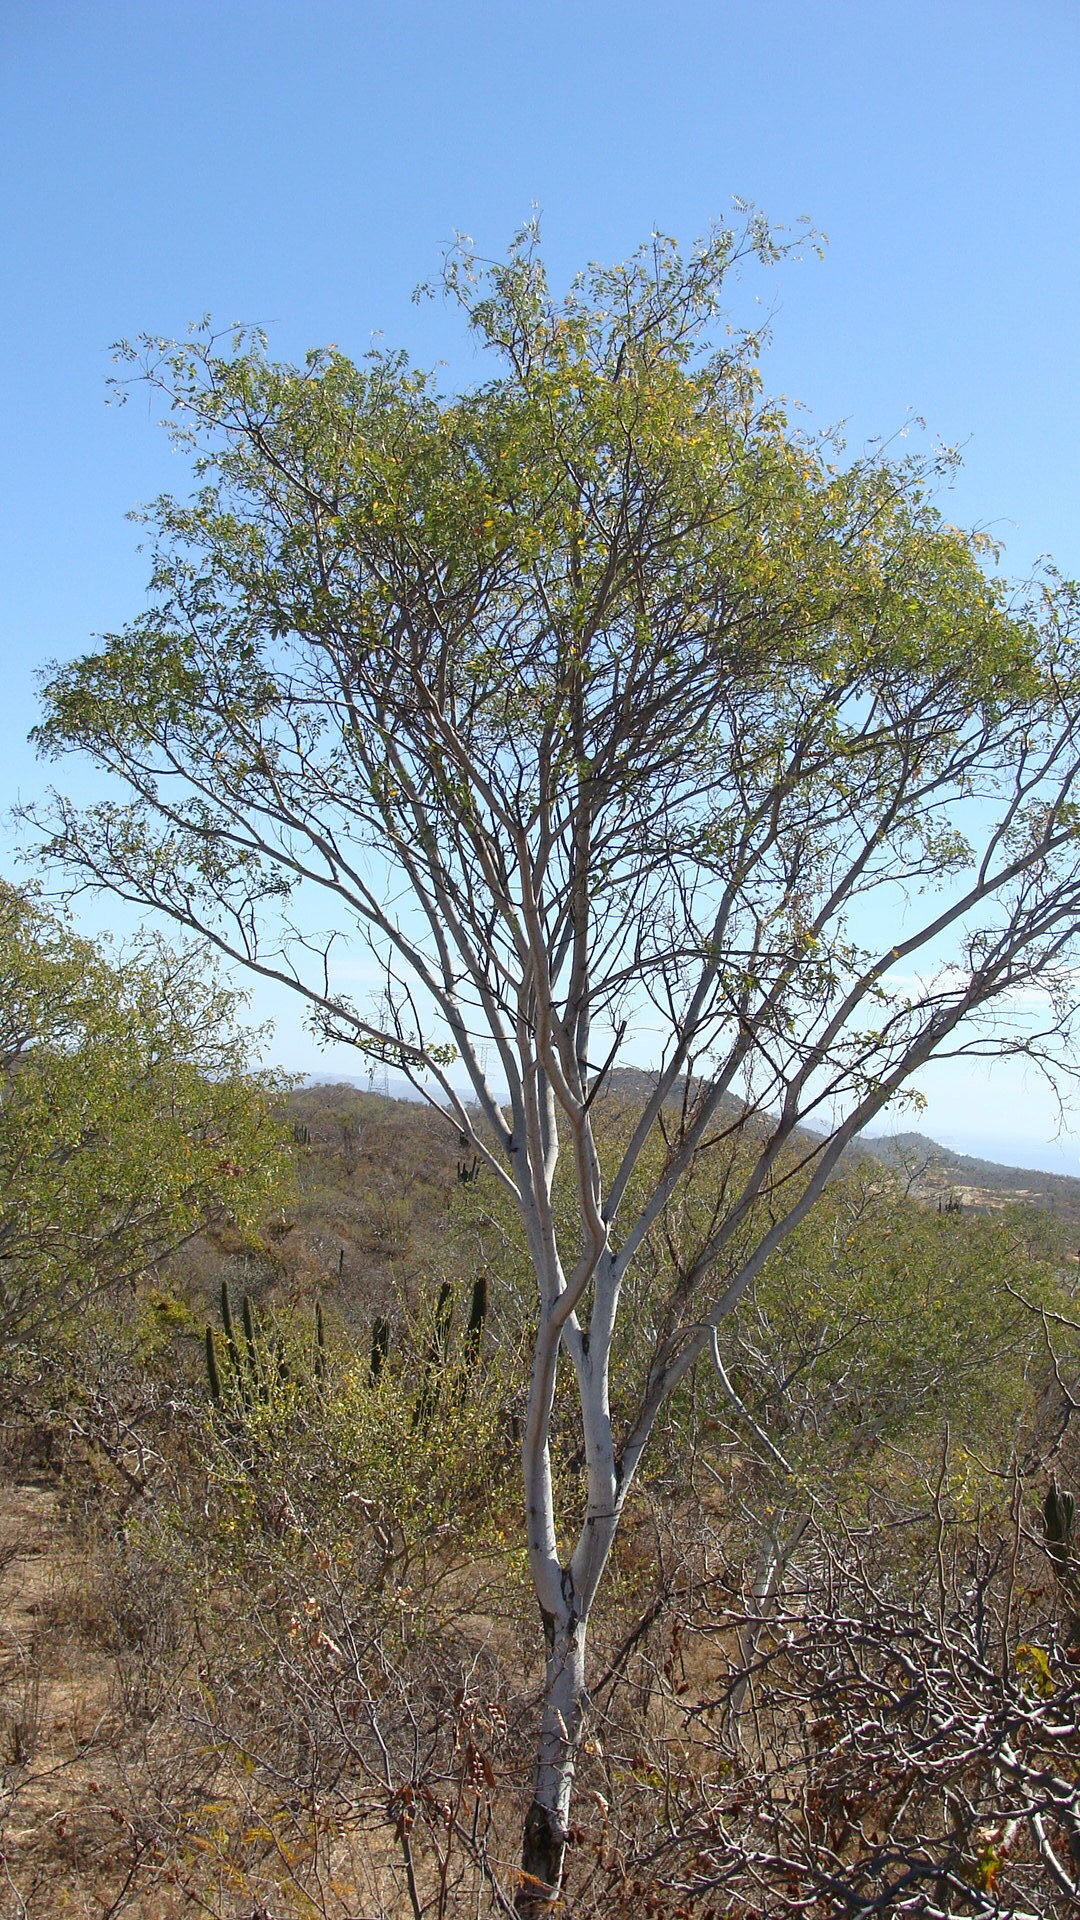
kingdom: Plantae
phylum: Tracheophyta
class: Magnoliopsida
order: Fabales
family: Fabaceae
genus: Lysiloma
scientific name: Lysiloma candidum
